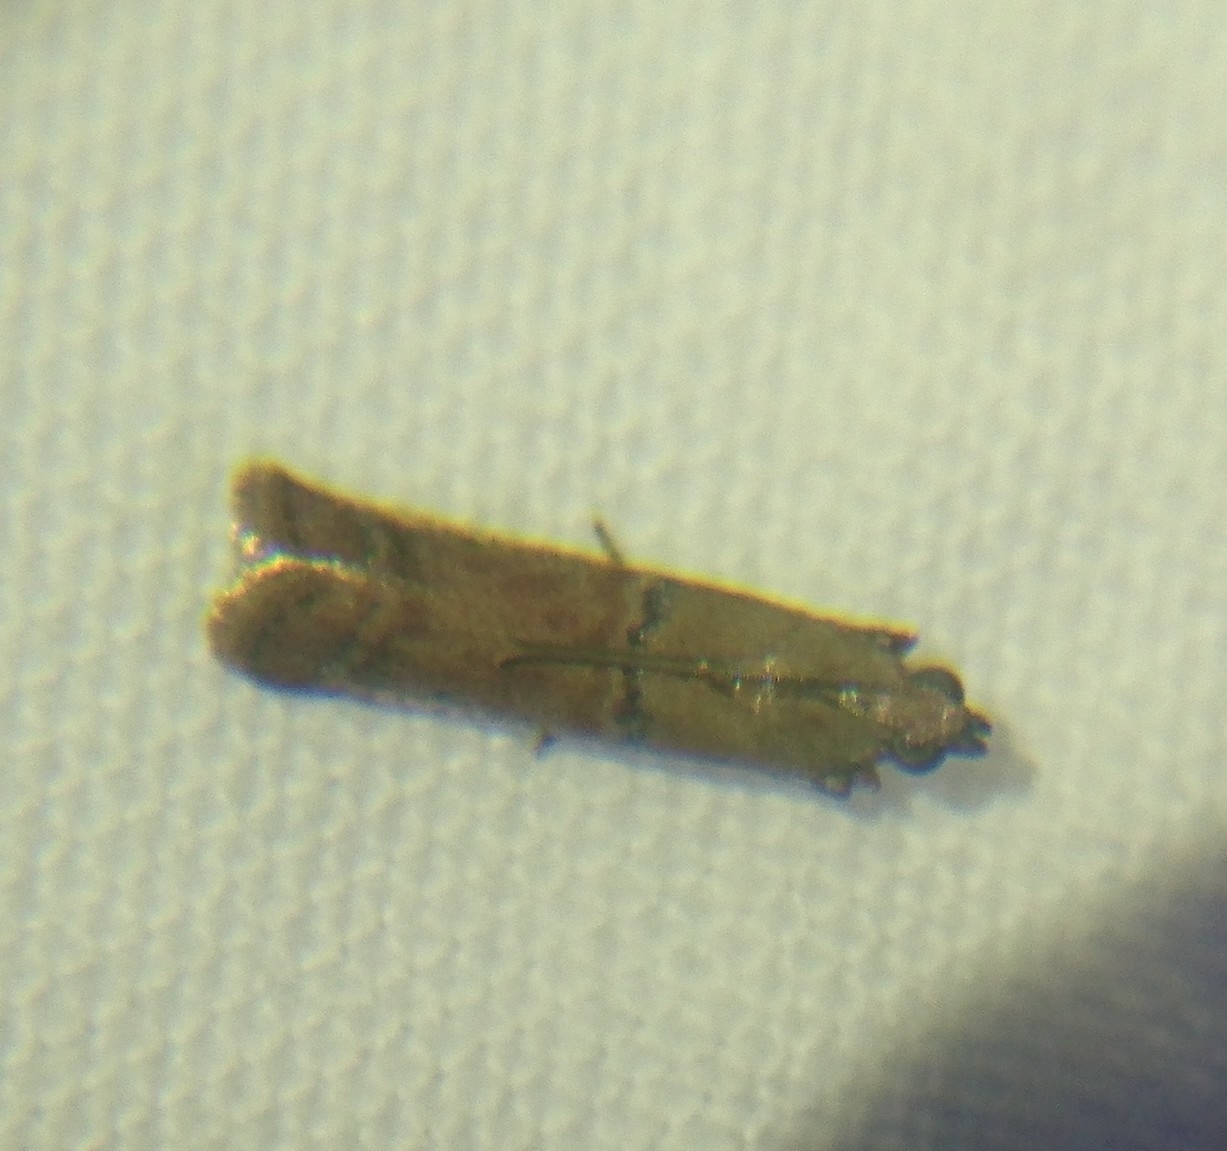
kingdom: Animalia
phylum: Arthropoda
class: Insecta
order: Lepidoptera
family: Pyralidae
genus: Atheloca
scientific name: Atheloca subrufella
